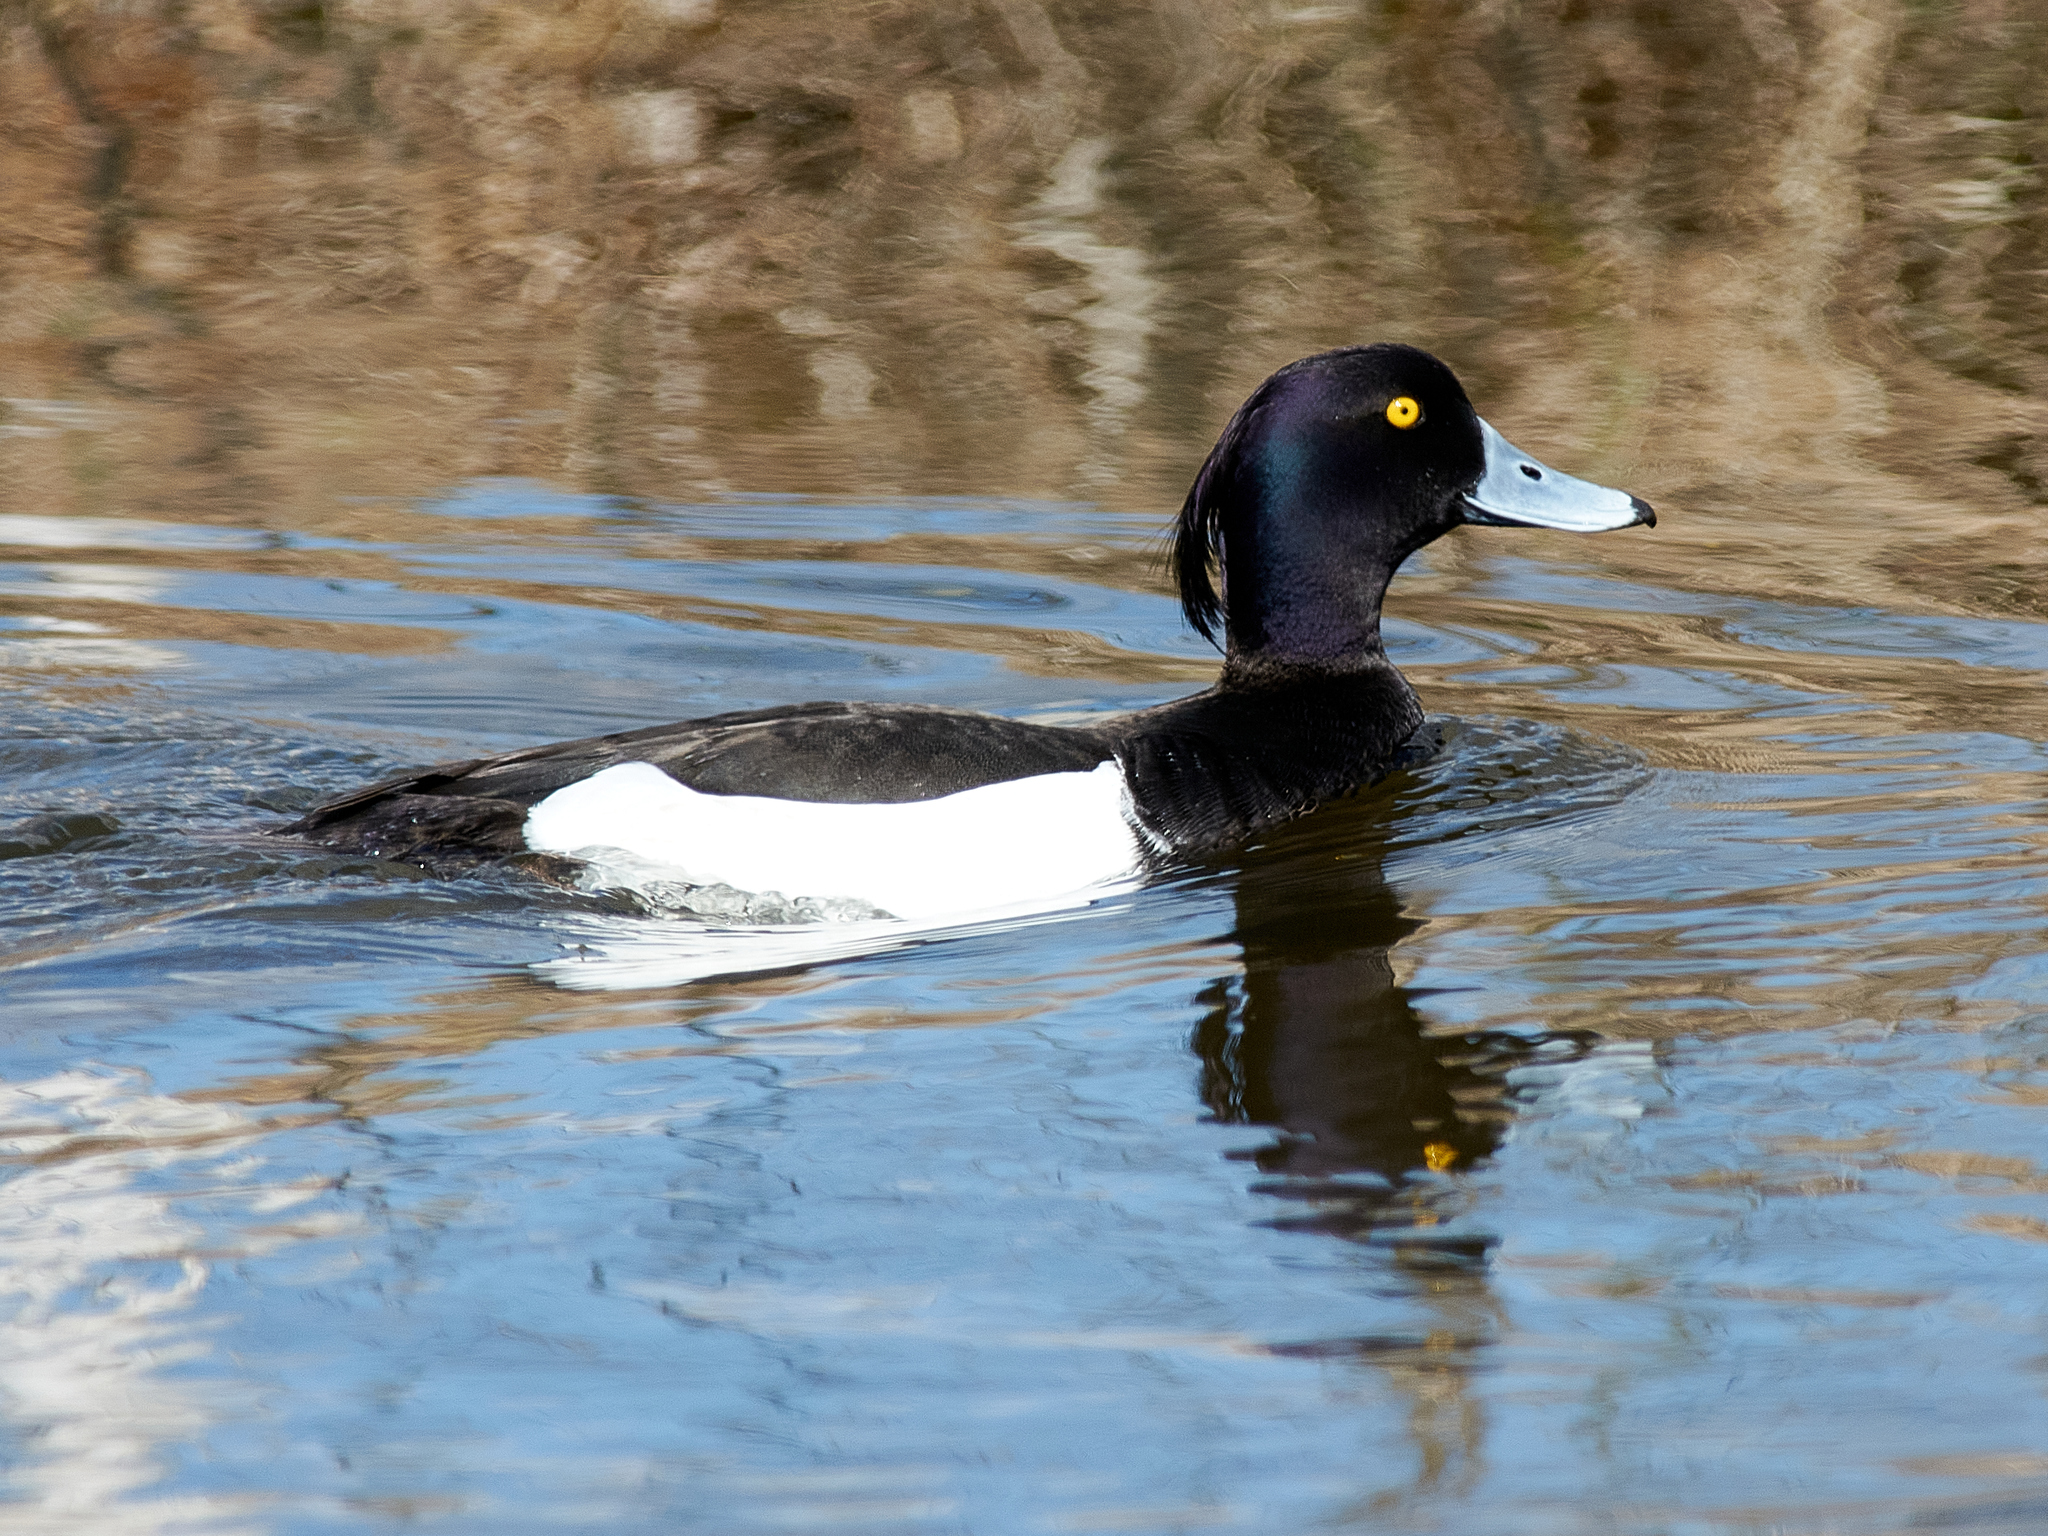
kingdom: Animalia
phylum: Chordata
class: Aves
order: Anseriformes
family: Anatidae
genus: Aythya
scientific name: Aythya fuligula
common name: Tufted duck
